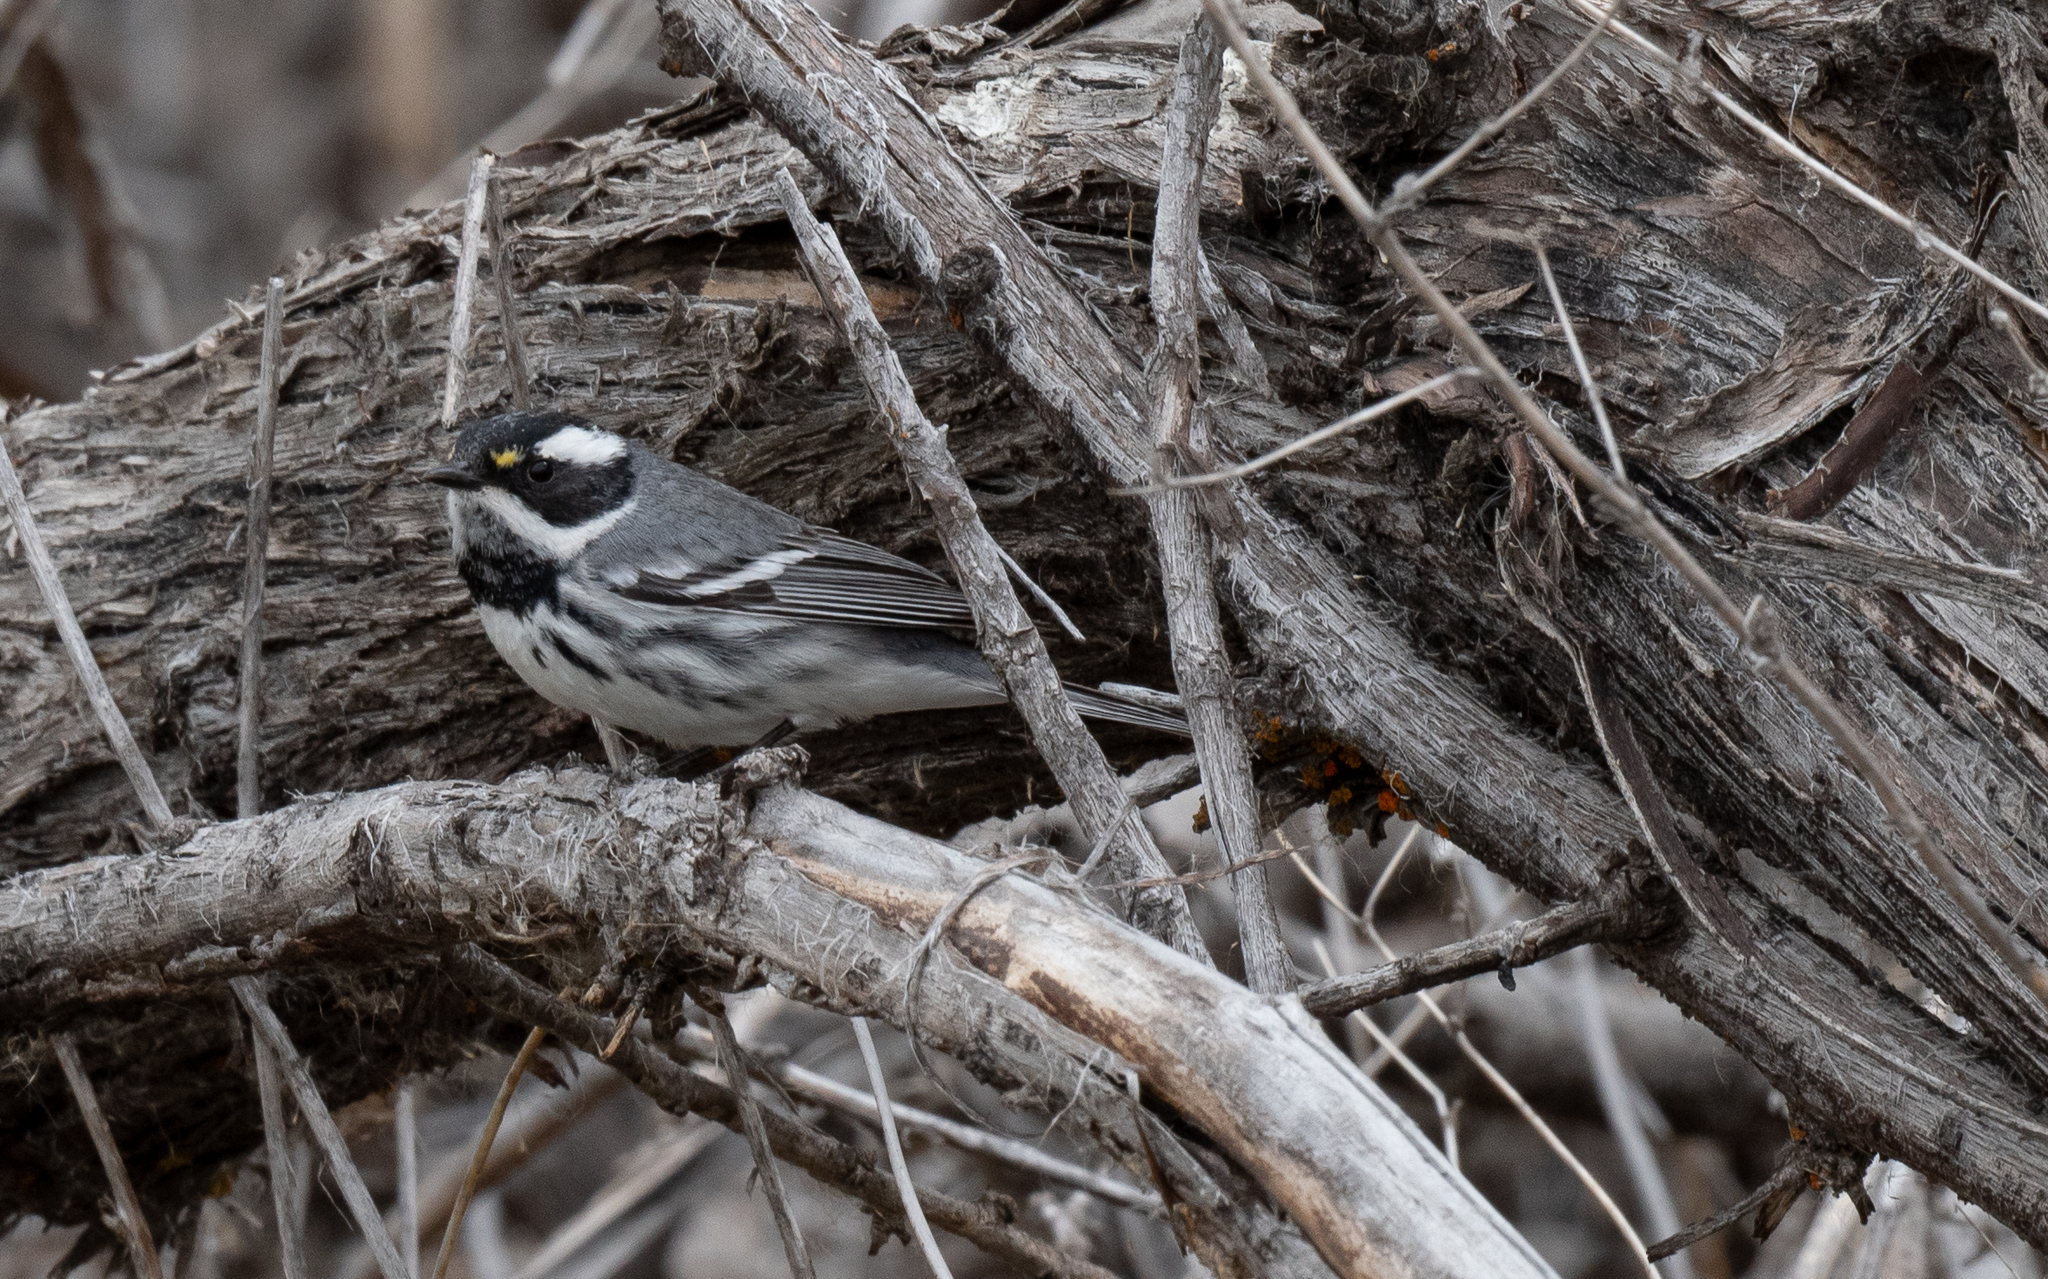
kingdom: Animalia
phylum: Chordata
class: Aves
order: Passeriformes
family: Parulidae
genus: Setophaga
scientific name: Setophaga nigrescens
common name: Black-throated gray warbler
